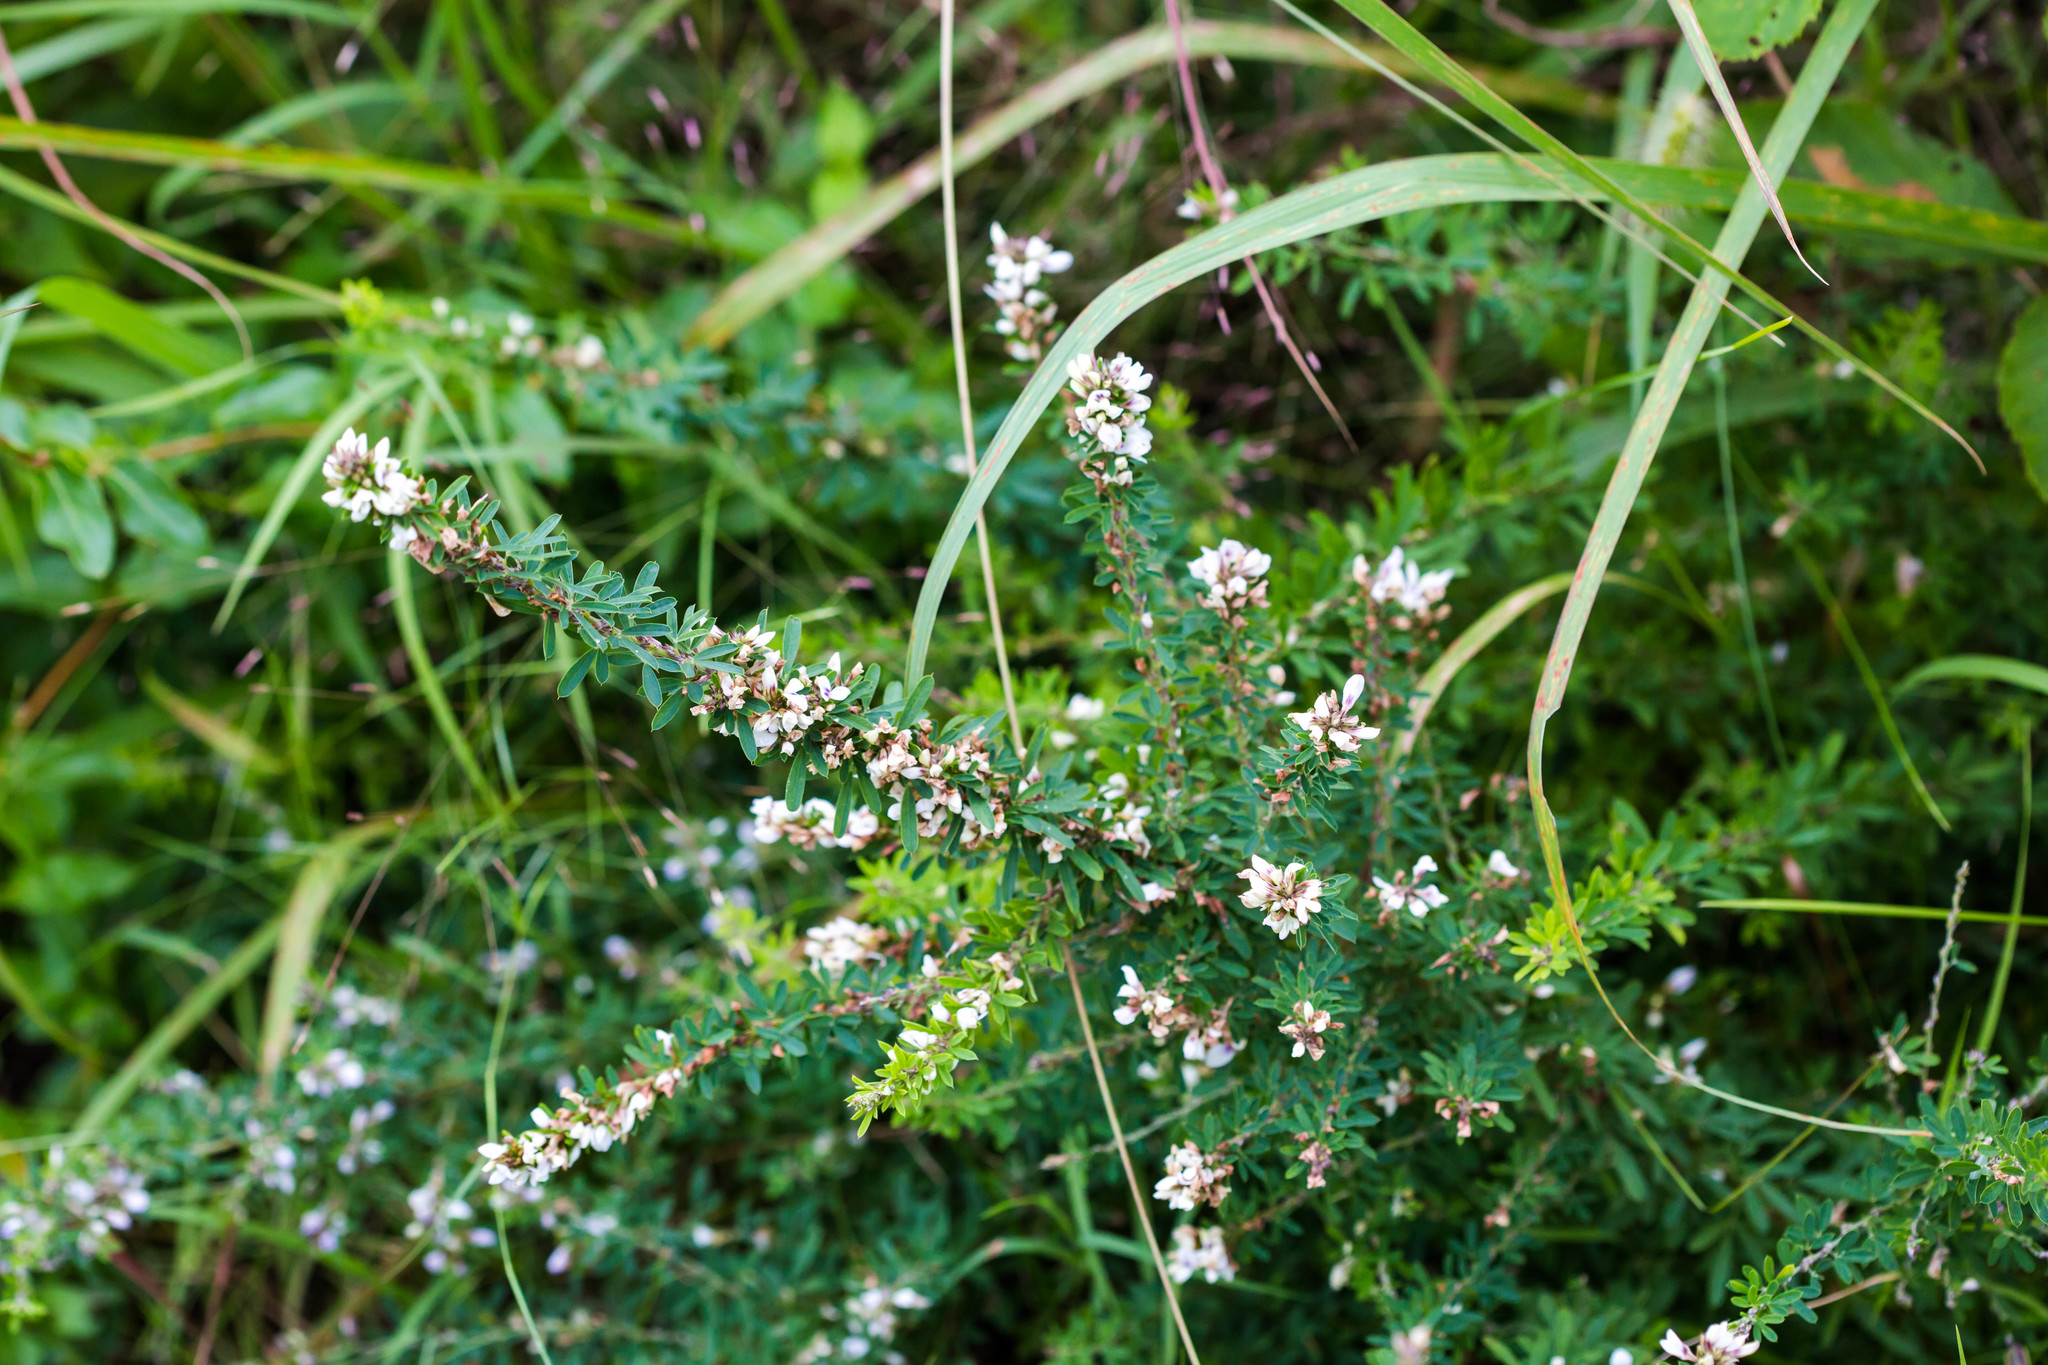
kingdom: Plantae
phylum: Tracheophyta
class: Magnoliopsida
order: Fabales
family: Fabaceae
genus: Lespedeza
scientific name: Lespedeza cuneata
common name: Chinese bush-clover
